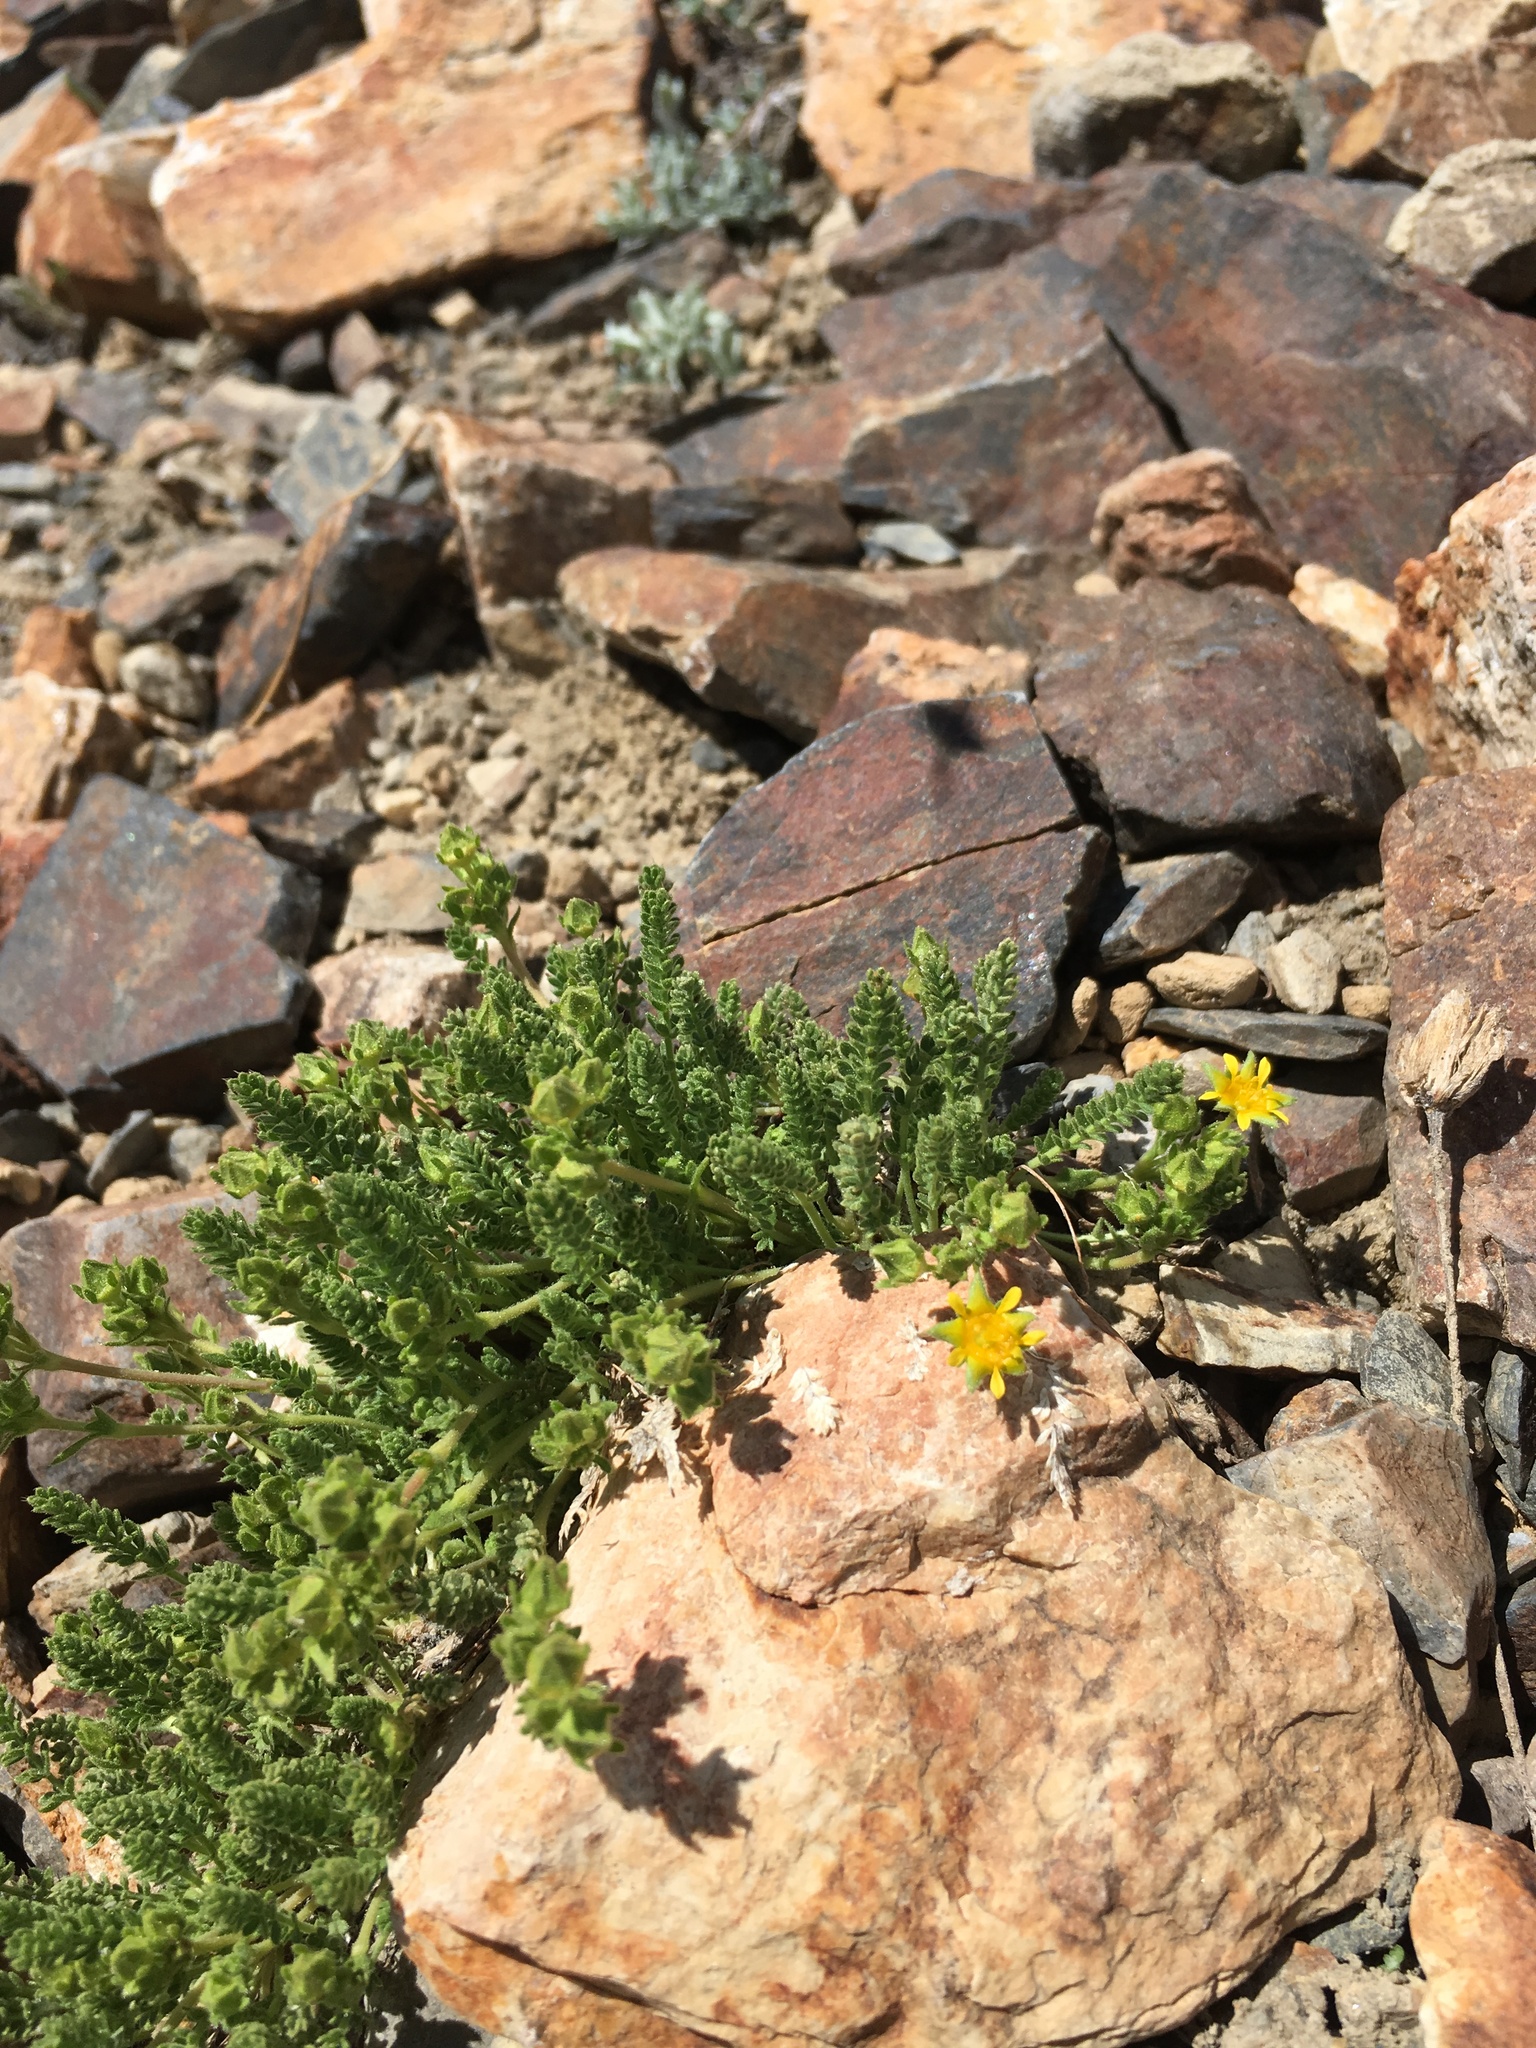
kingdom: Plantae
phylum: Tracheophyta
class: Magnoliopsida
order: Rosales
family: Rosaceae
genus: Potentilla
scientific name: Potentilla shockleyi
